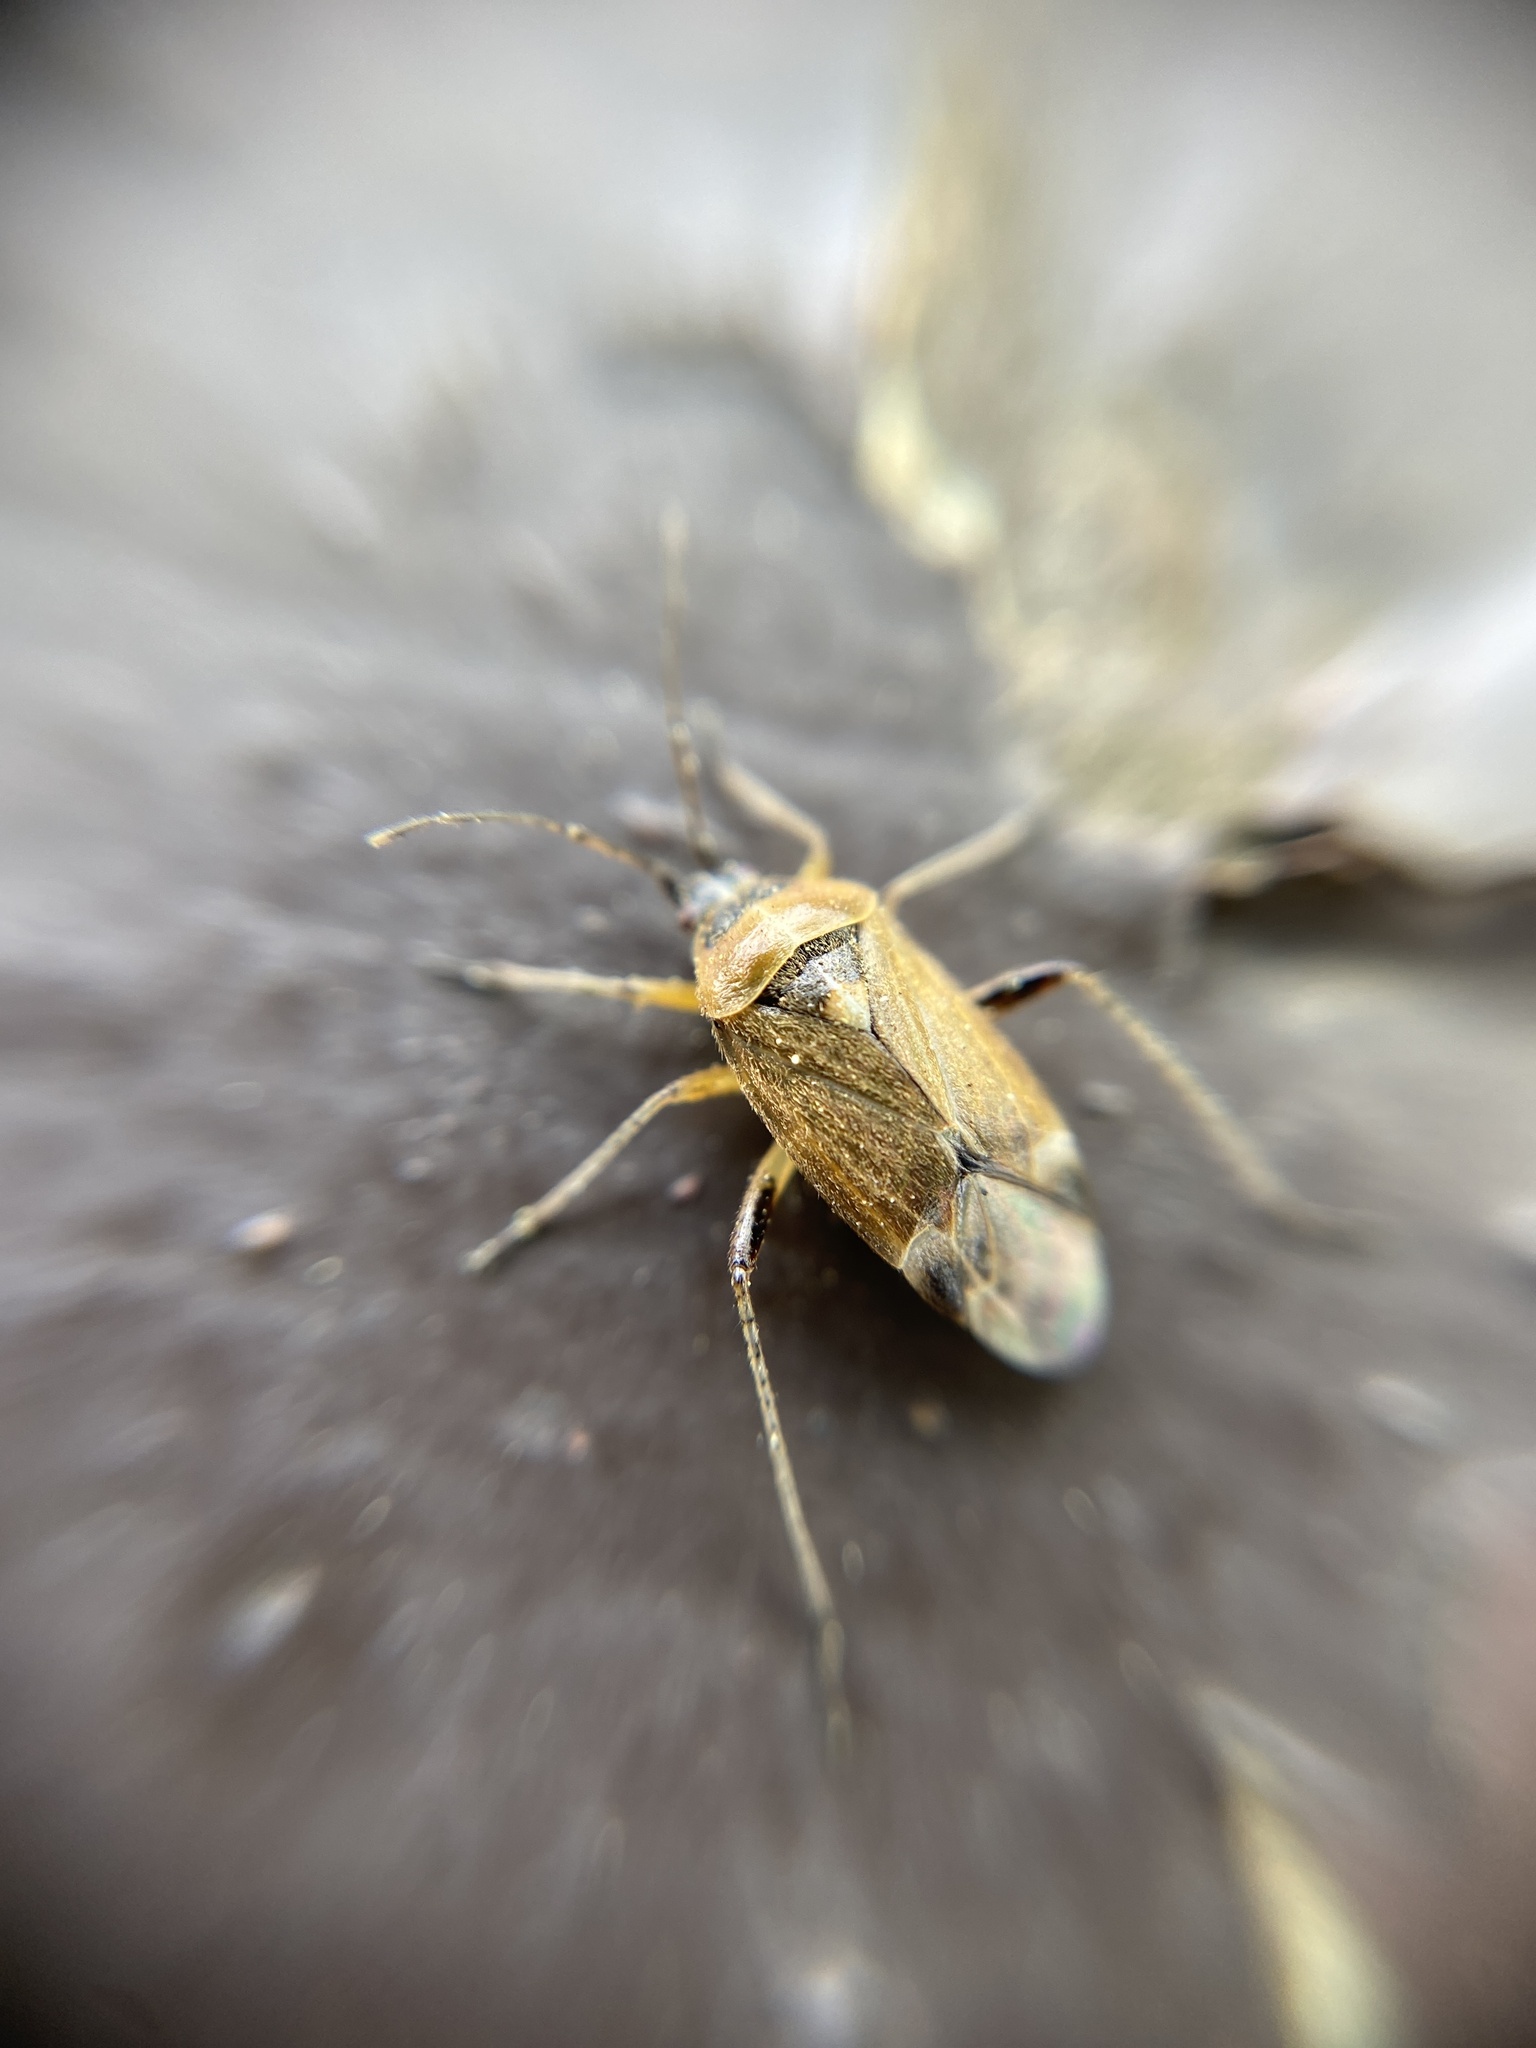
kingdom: Animalia
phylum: Arthropoda
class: Insecta
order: Hemiptera
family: Miridae
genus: Harpocera
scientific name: Harpocera thoracica
